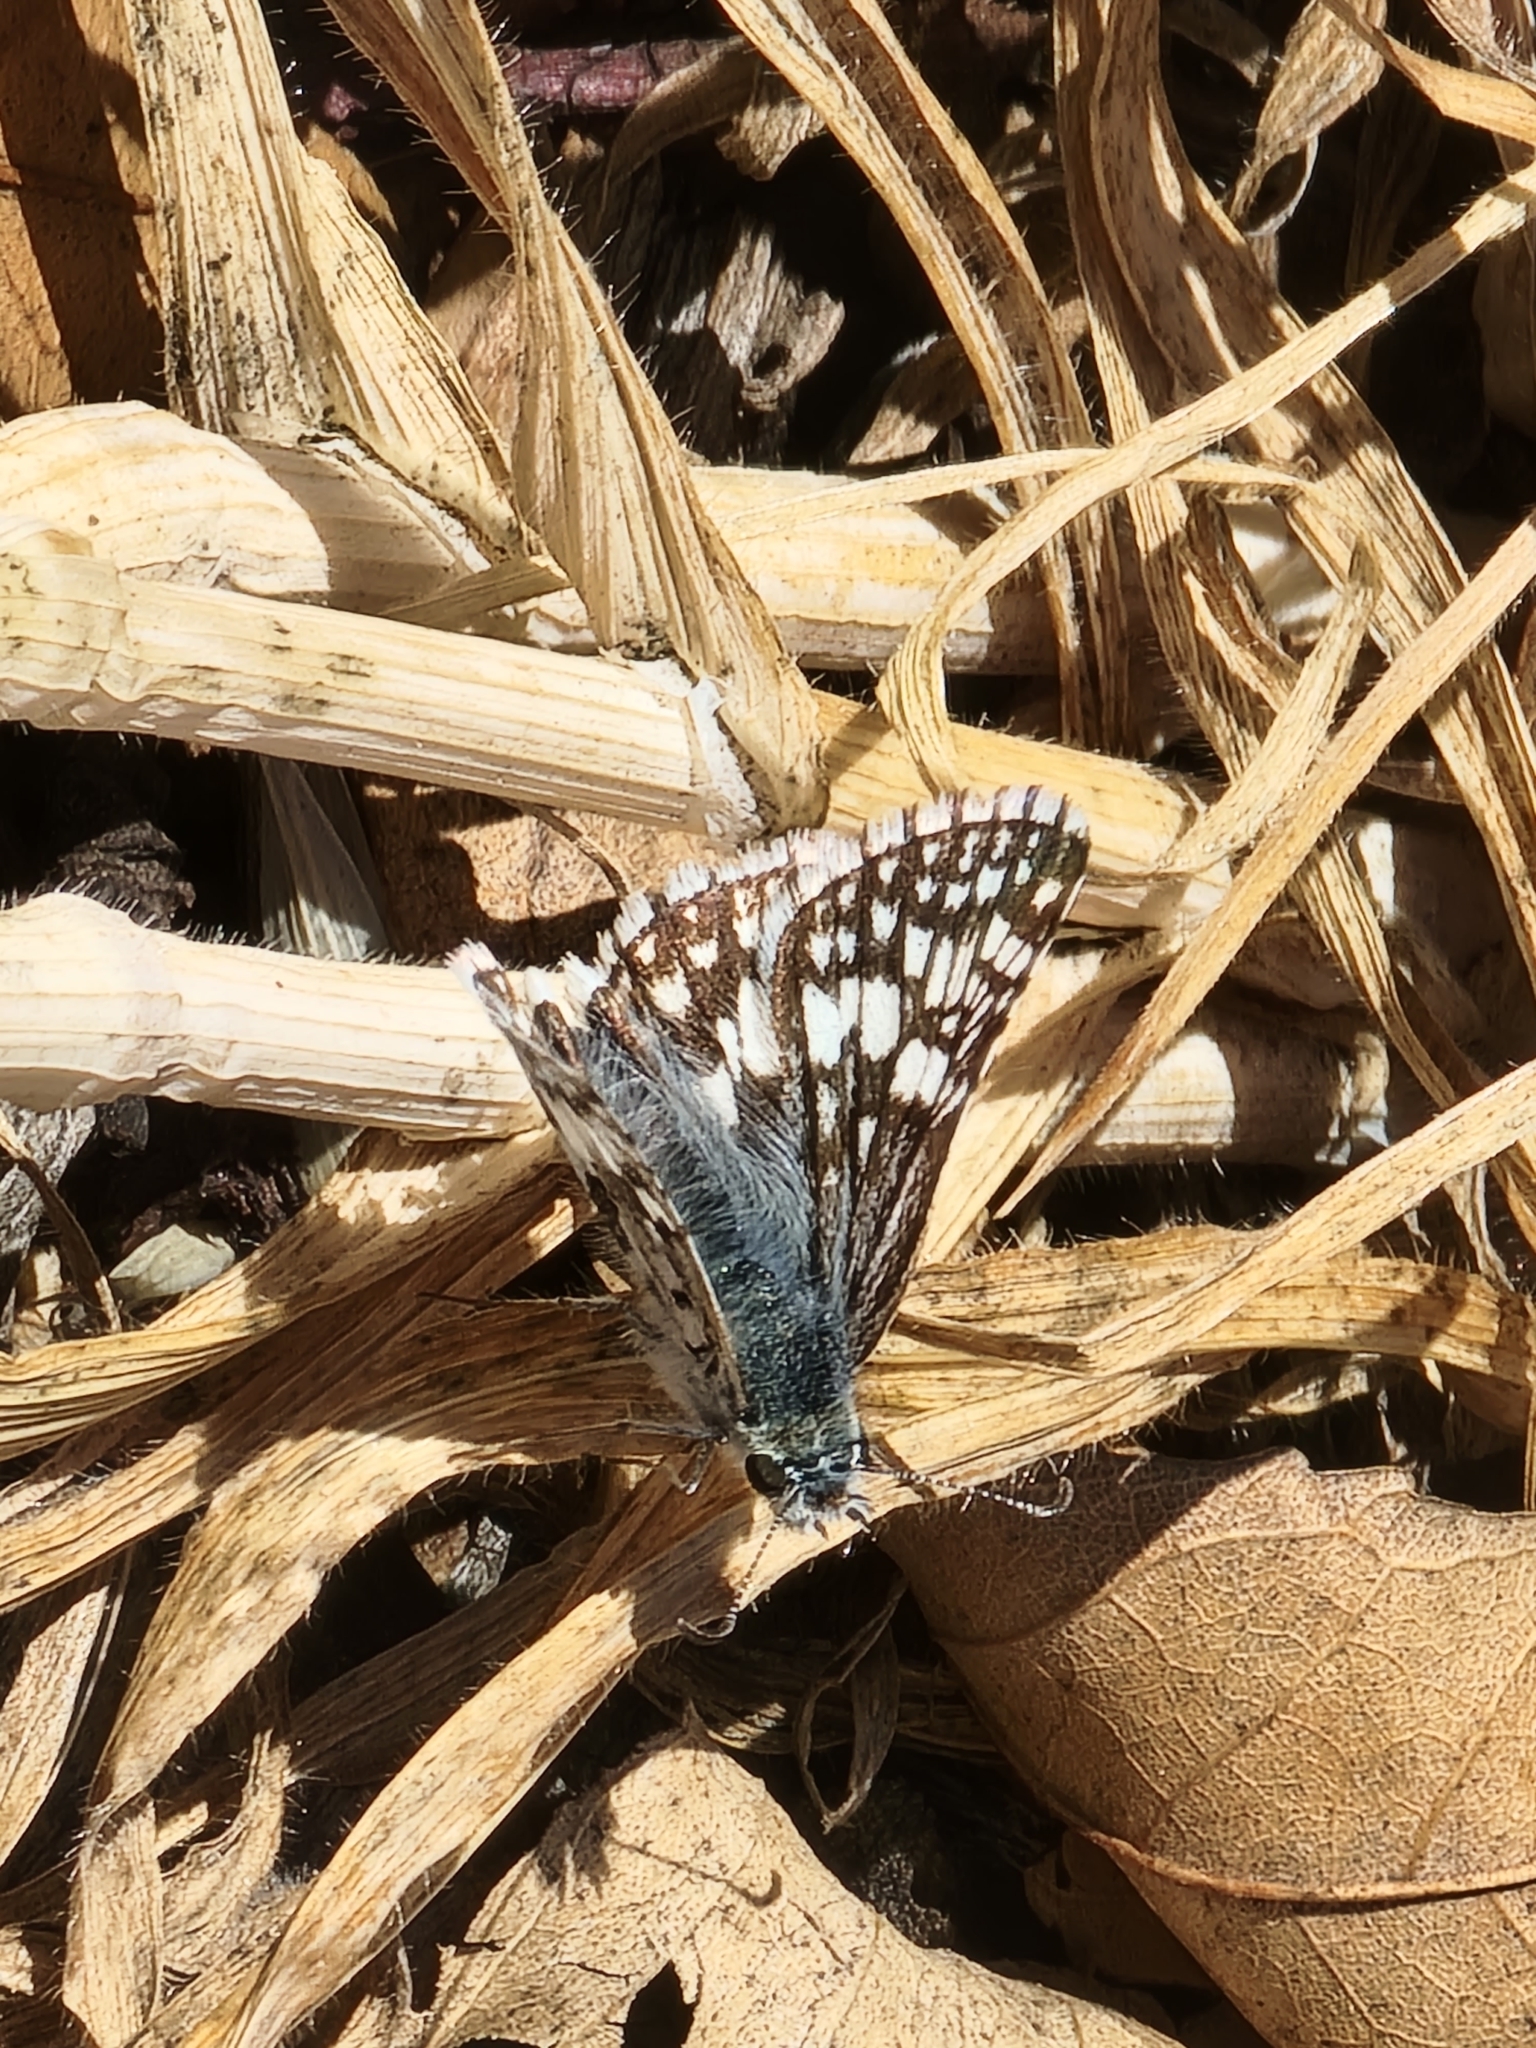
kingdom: Animalia
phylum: Arthropoda
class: Insecta
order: Lepidoptera
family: Hesperiidae
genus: Burnsius
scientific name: Burnsius communis
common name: Common checkered-skipper
